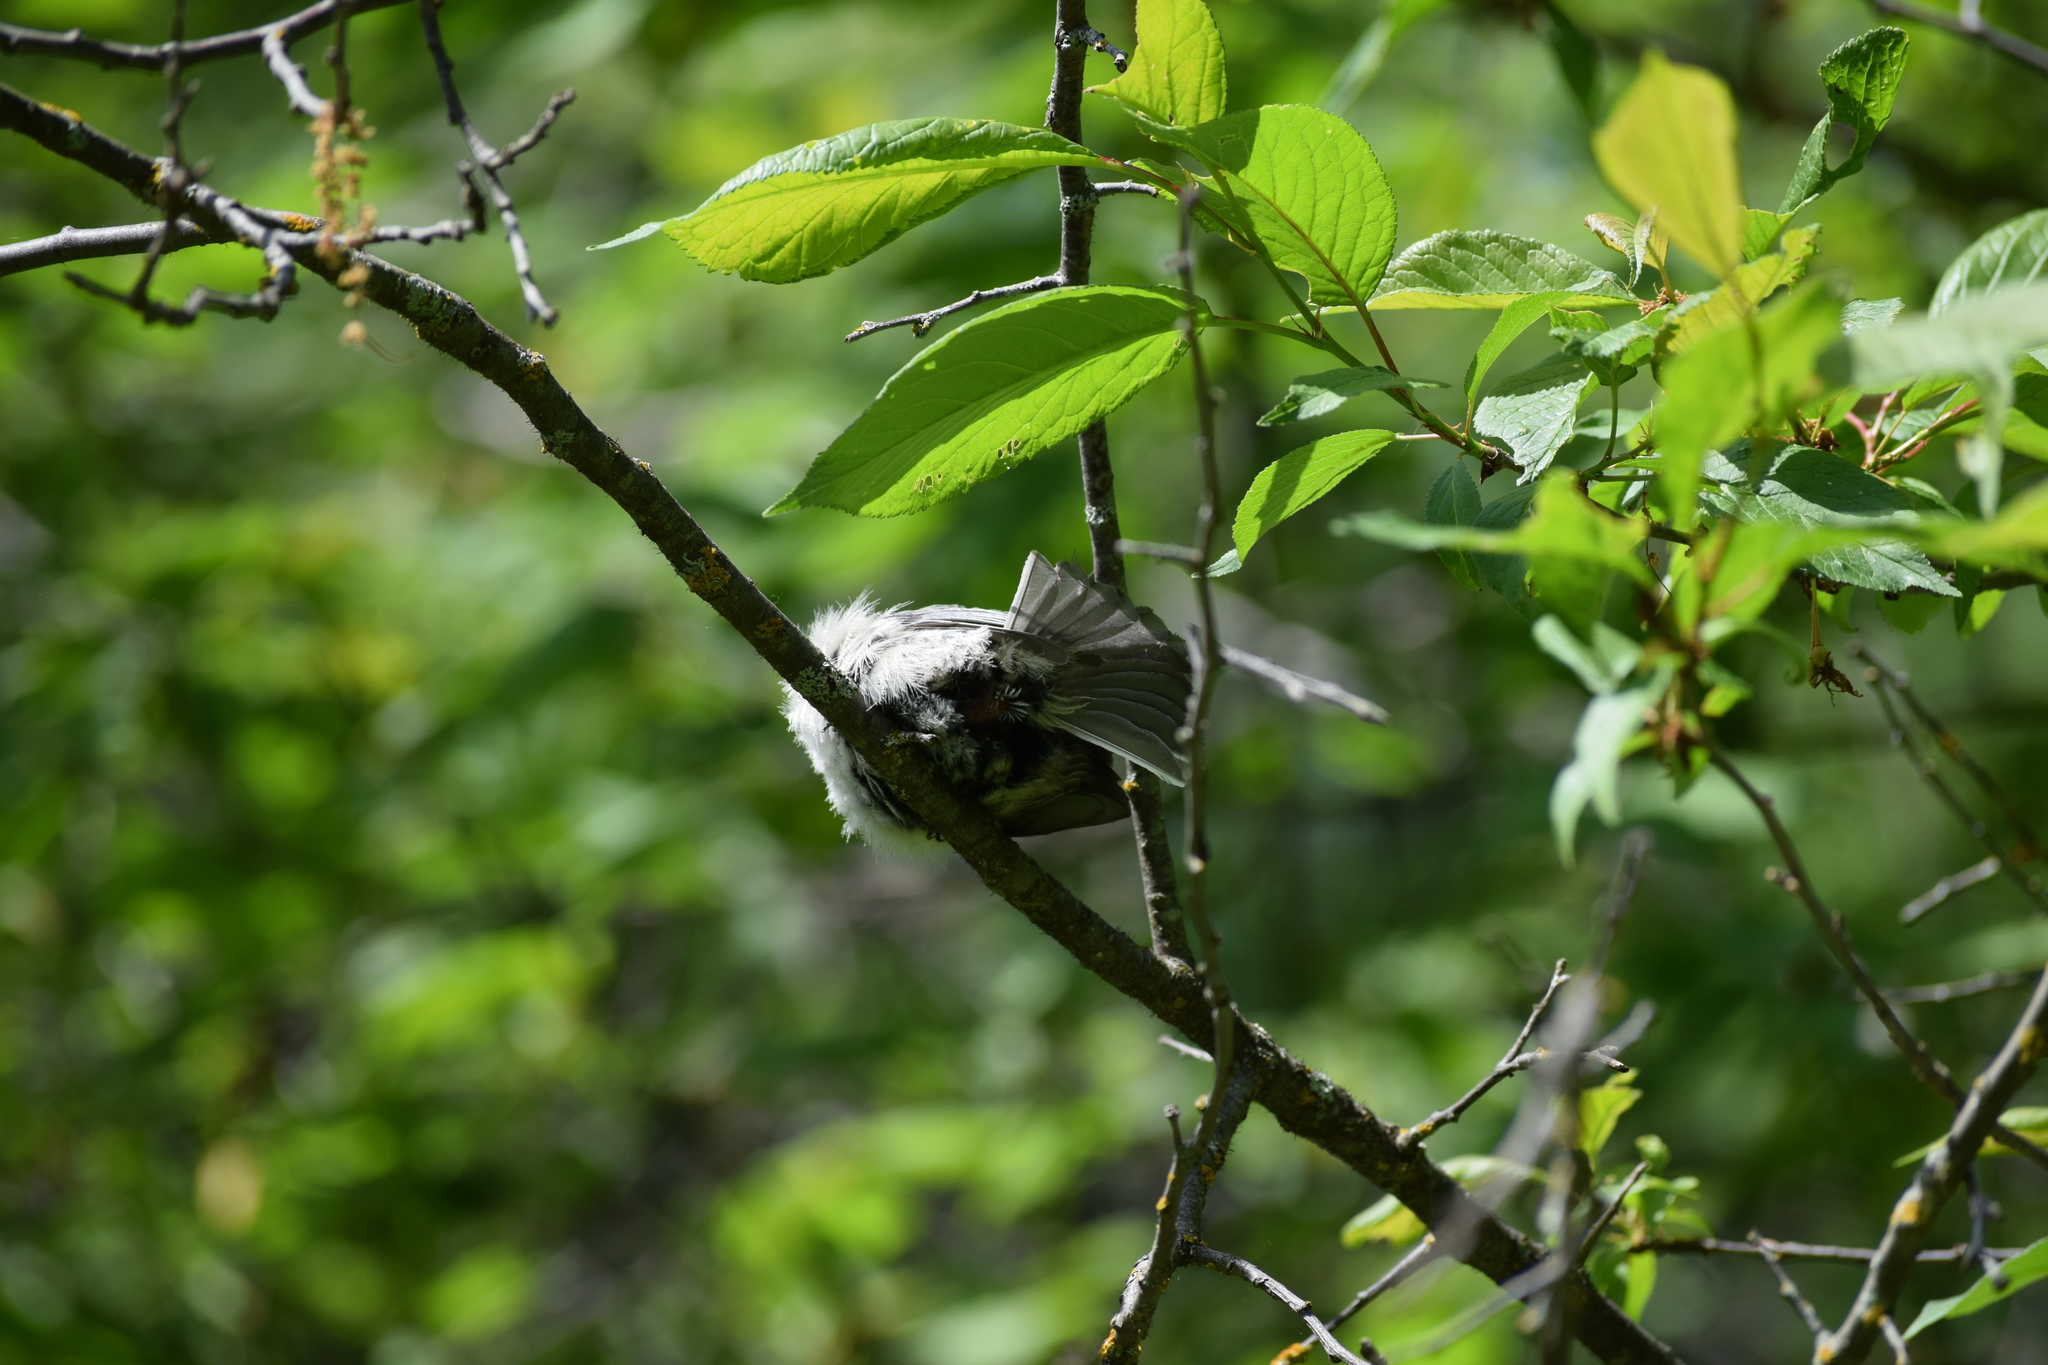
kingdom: Animalia
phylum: Chordata
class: Aves
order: Passeriformes
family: Paridae
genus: Poecile
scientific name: Poecile atricapillus
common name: Black-capped chickadee
